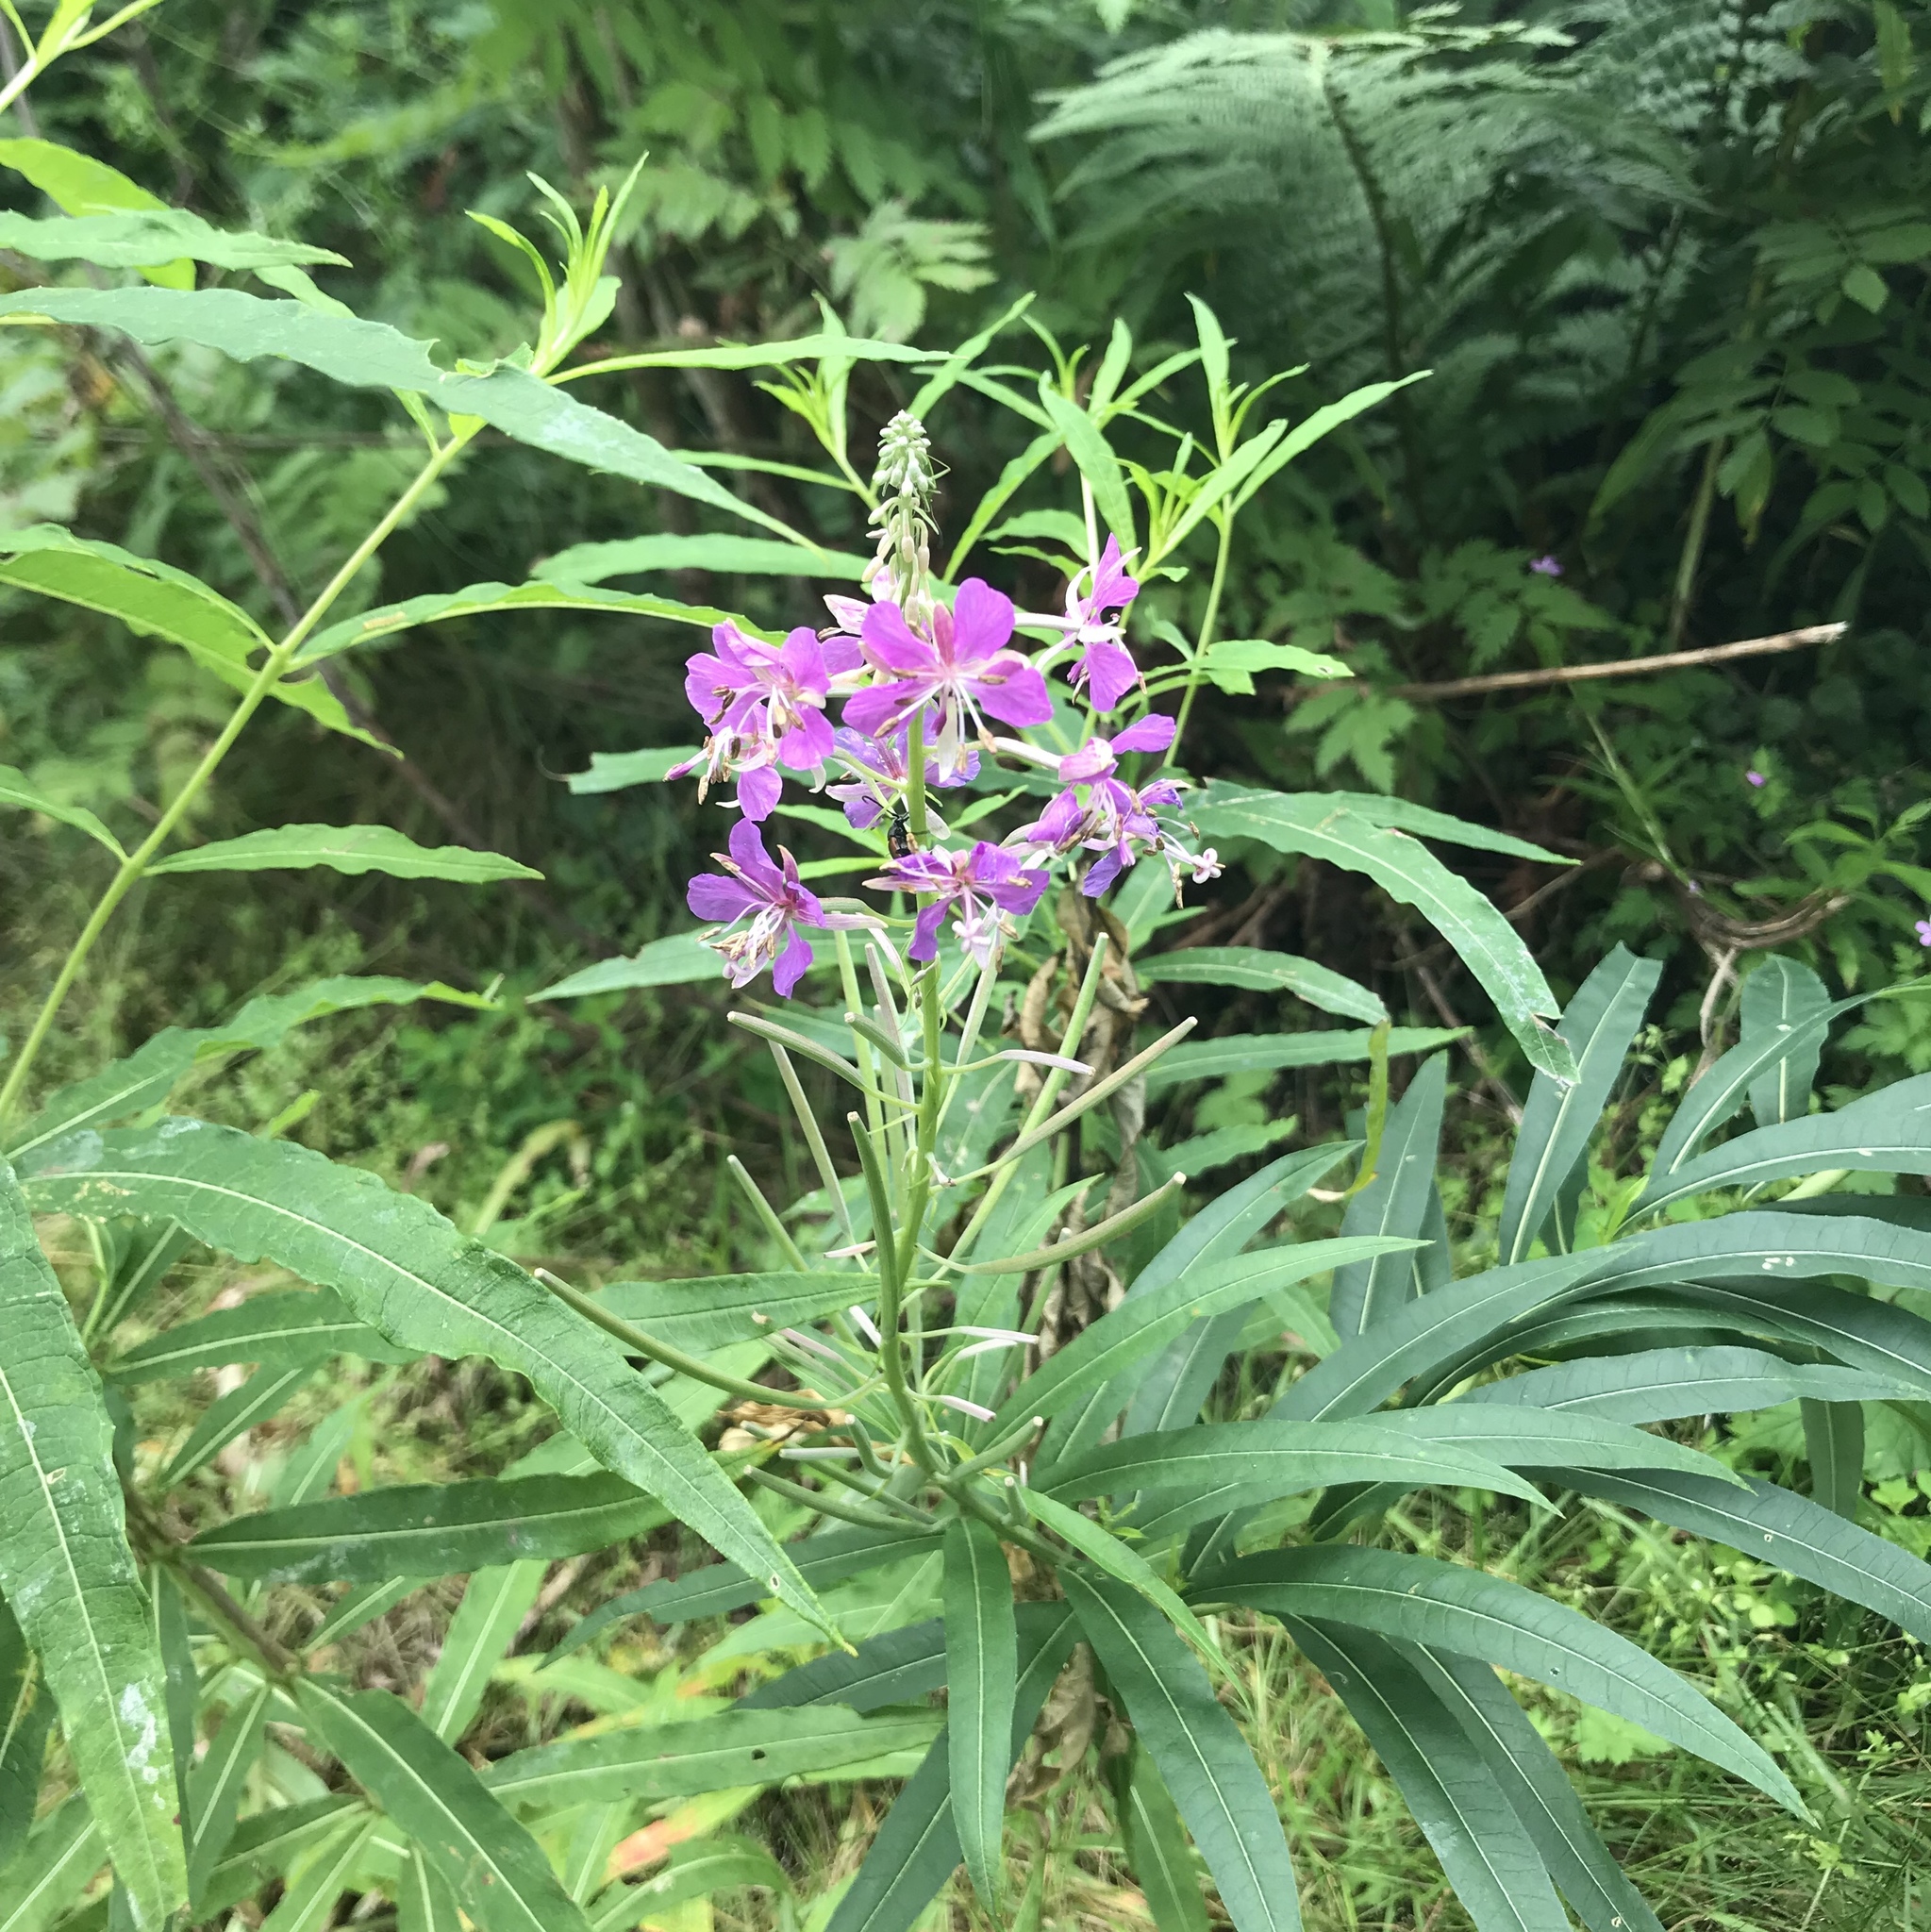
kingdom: Plantae
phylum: Tracheophyta
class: Magnoliopsida
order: Myrtales
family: Onagraceae
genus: Chamaenerion
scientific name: Chamaenerion angustifolium
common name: Fireweed
